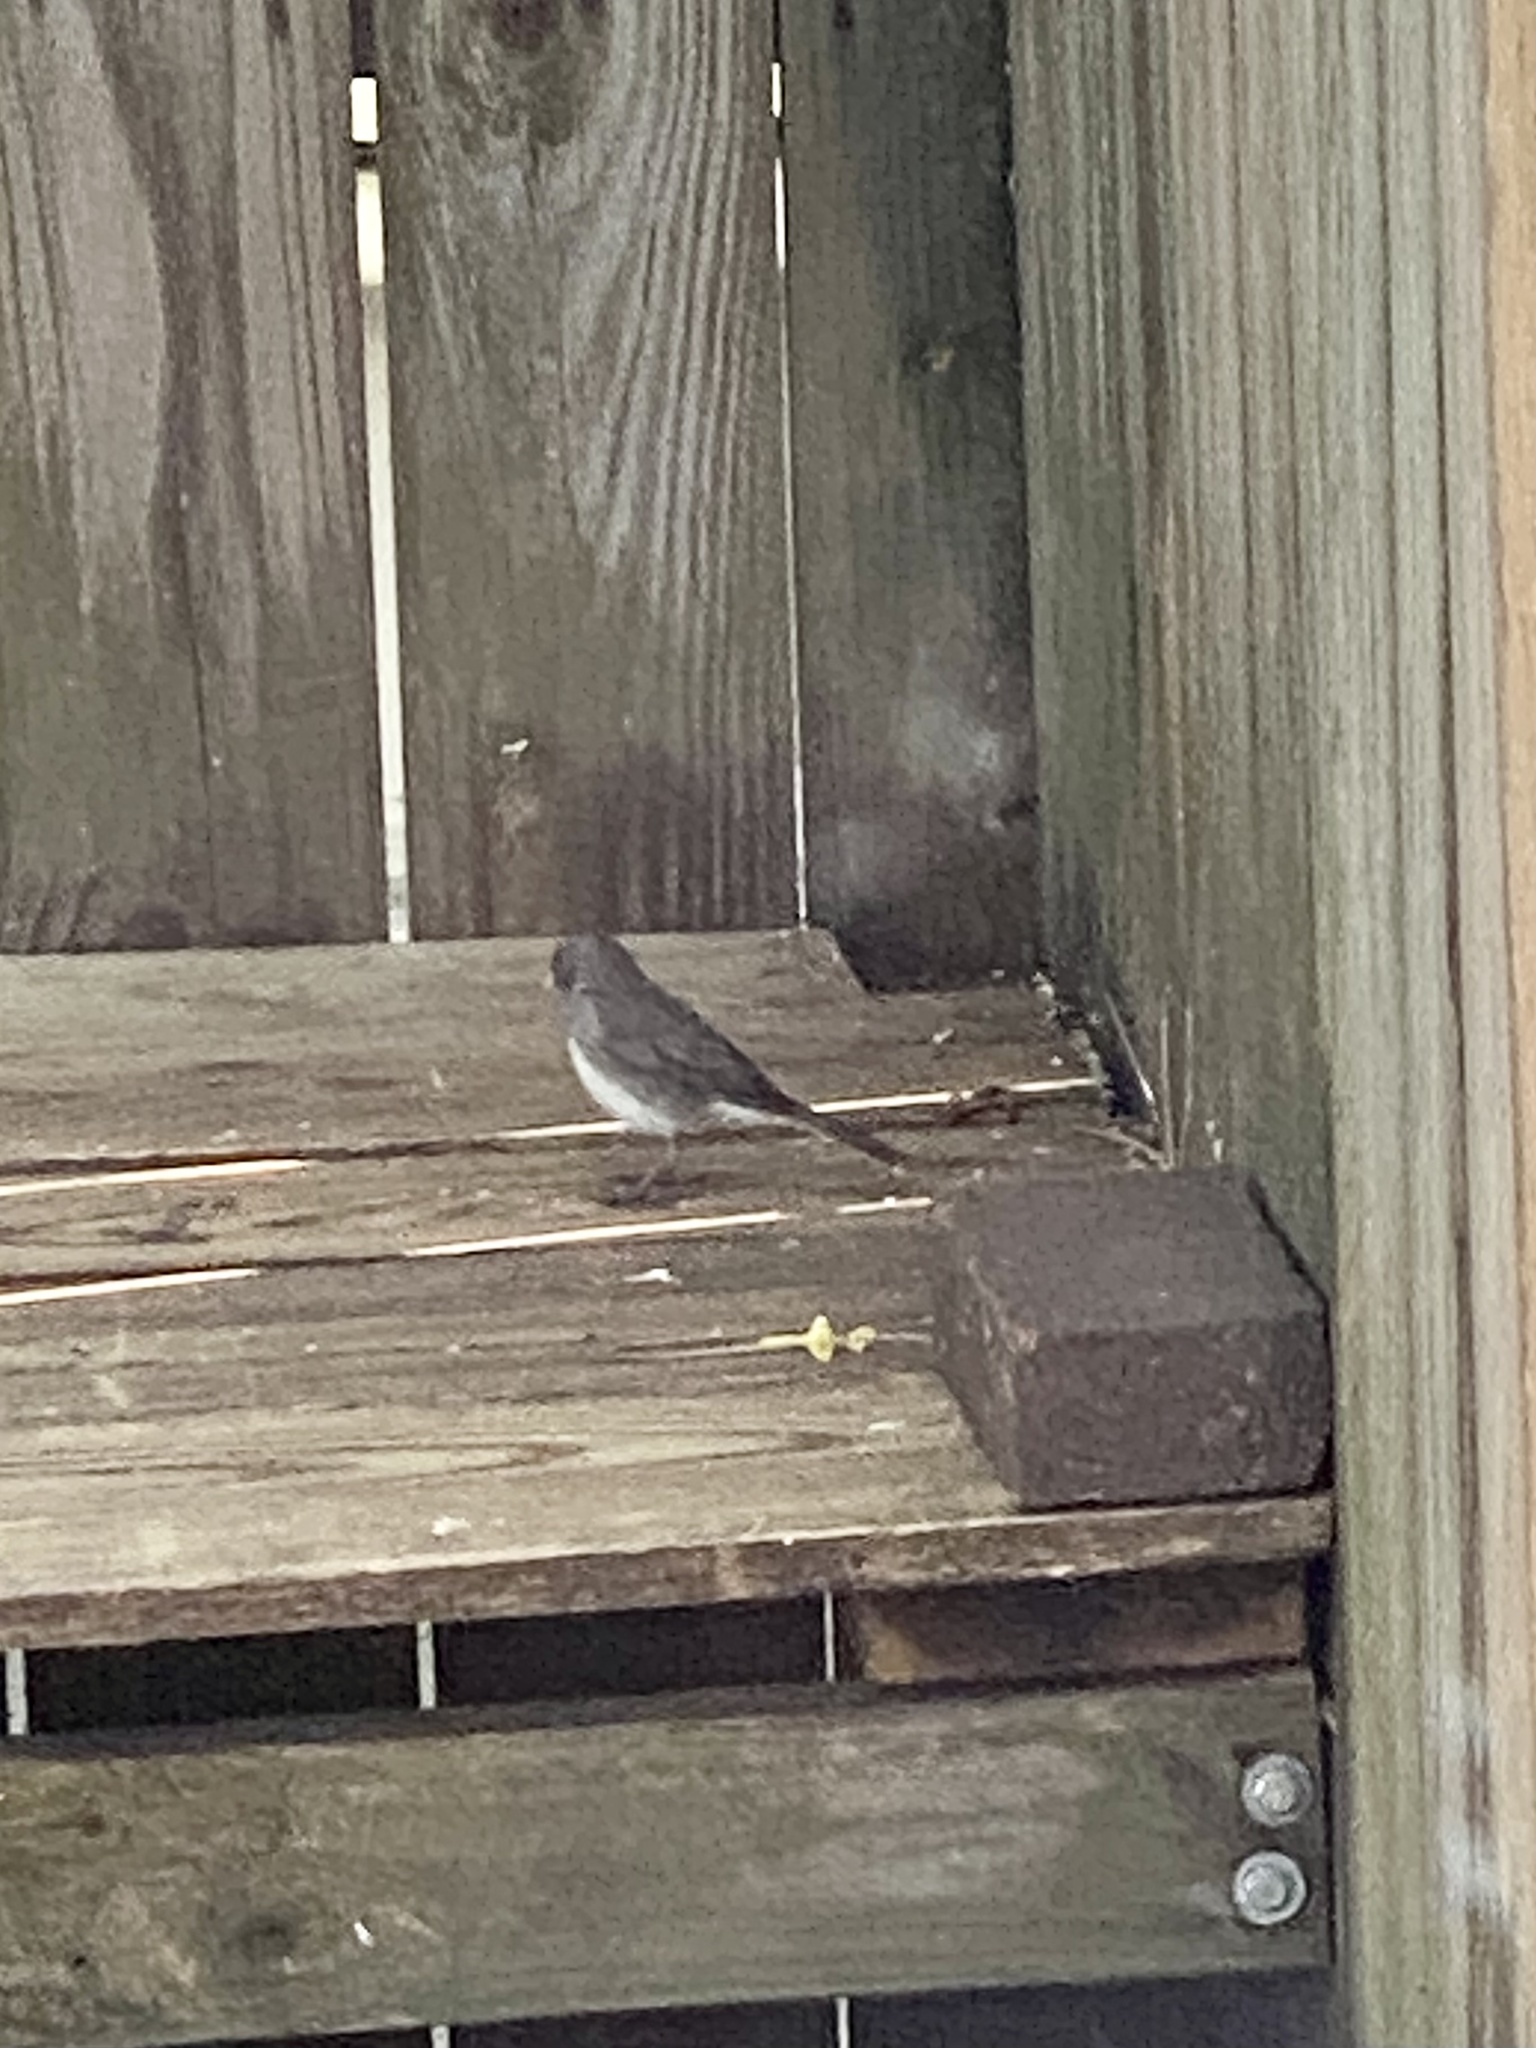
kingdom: Animalia
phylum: Chordata
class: Aves
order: Passeriformes
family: Passerellidae
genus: Junco
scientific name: Junco hyemalis
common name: Dark-eyed junco
